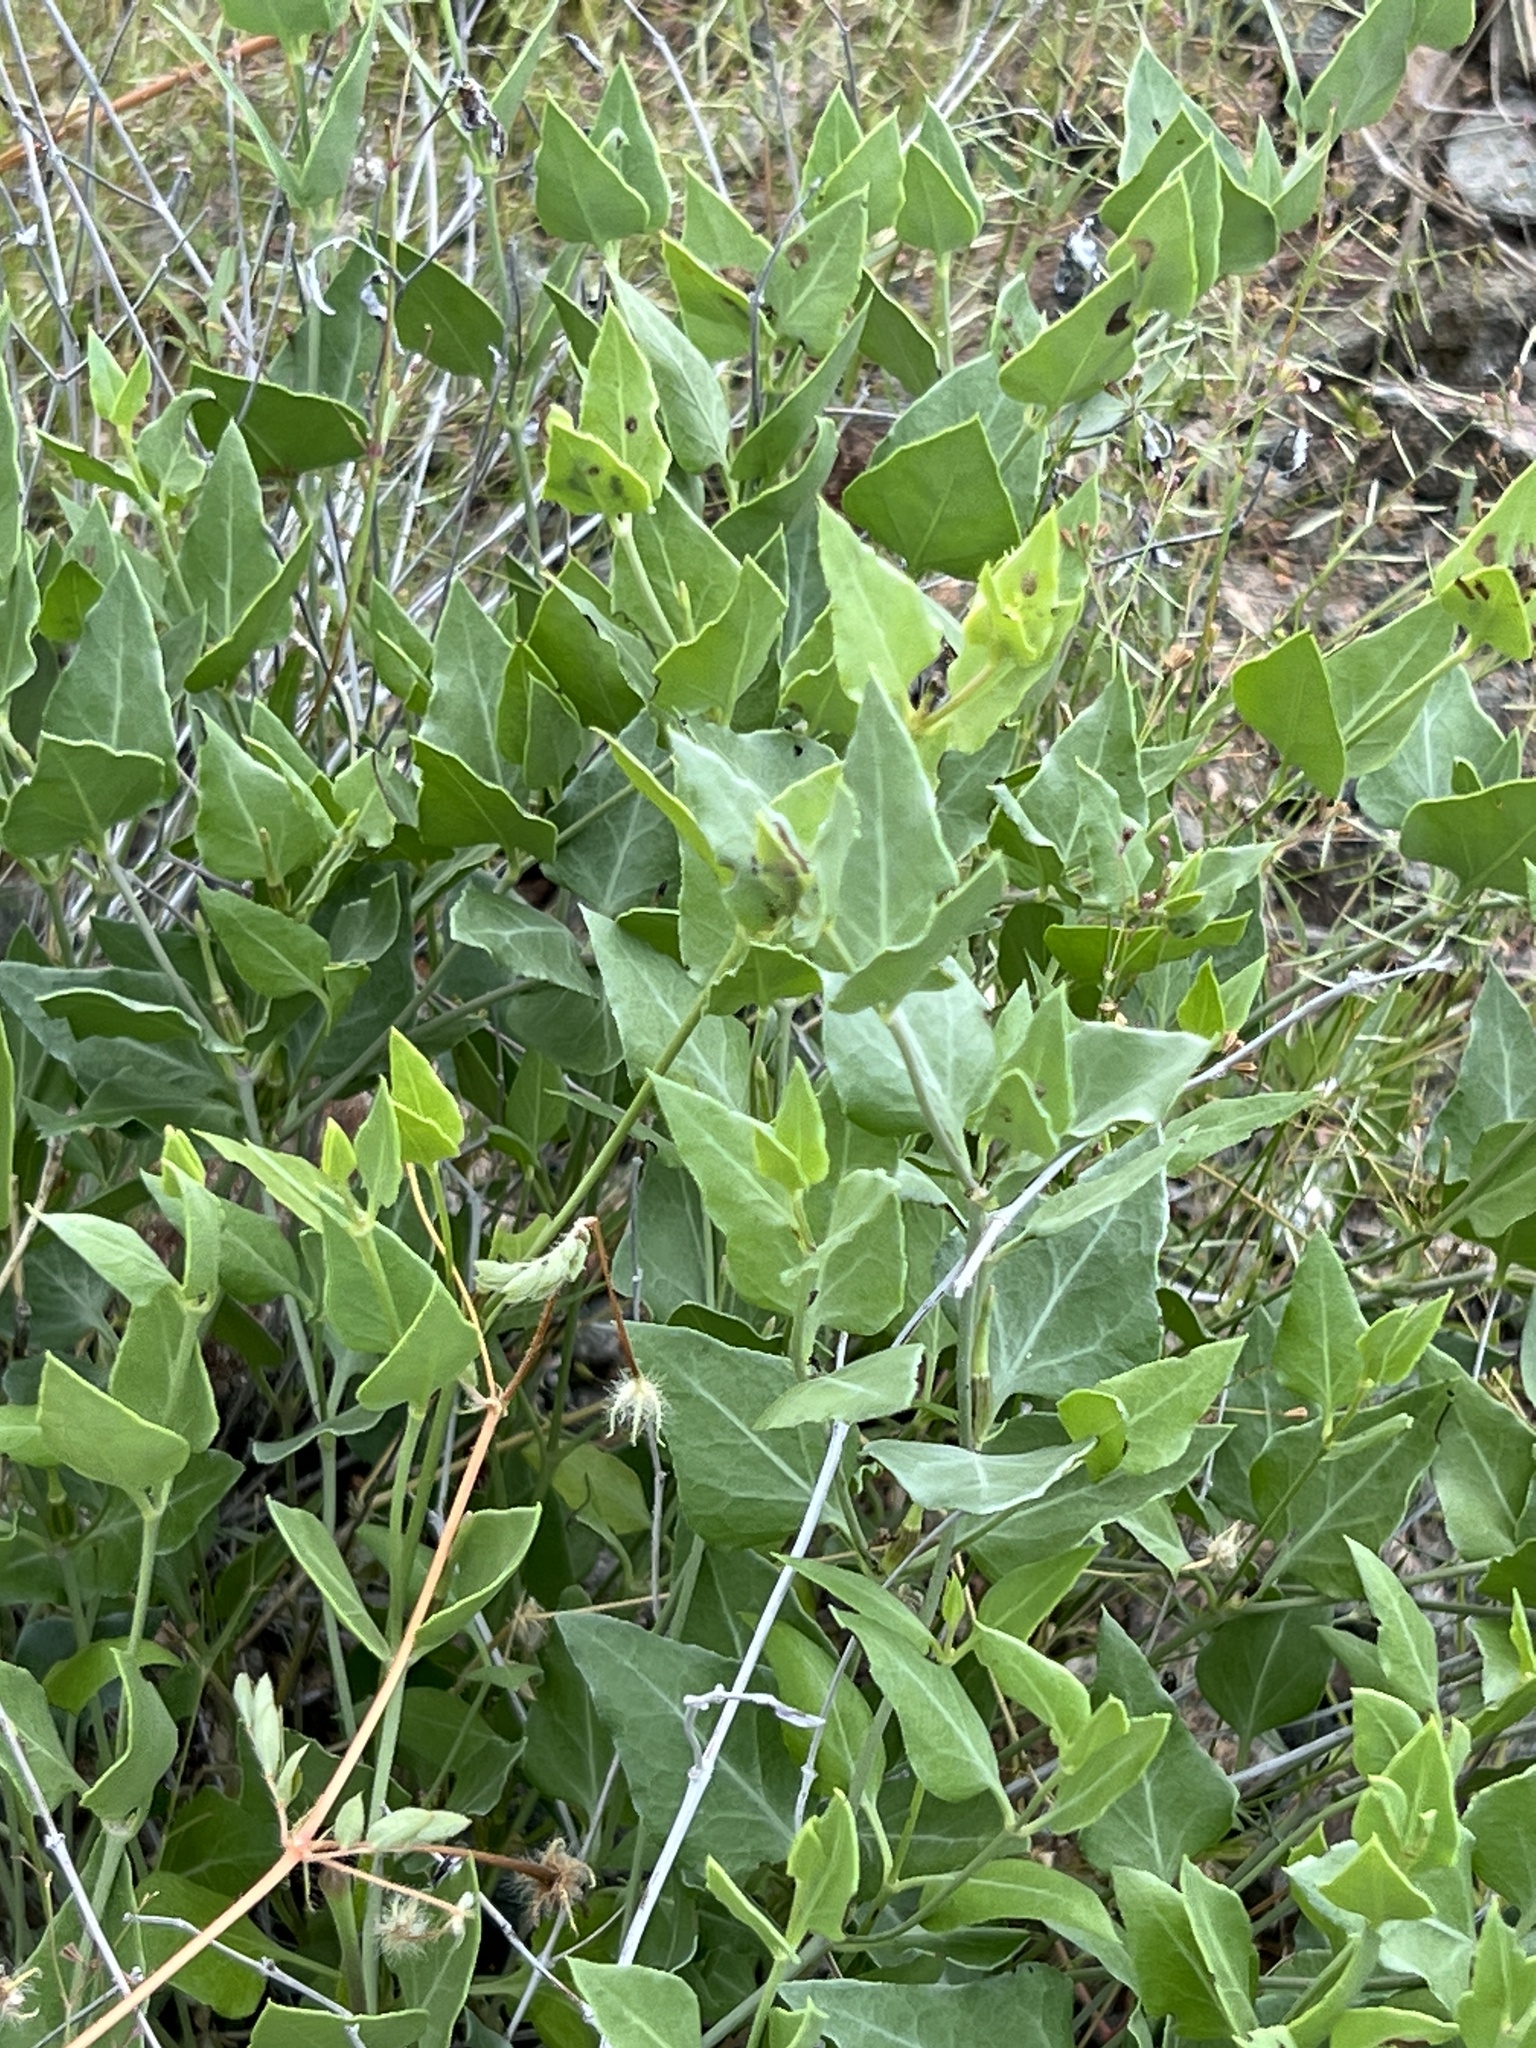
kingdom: Plantae
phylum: Tracheophyta
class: Magnoliopsida
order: Caryophyllales
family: Nyctaginaceae
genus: Acleisanthes
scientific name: Acleisanthes longiflora
